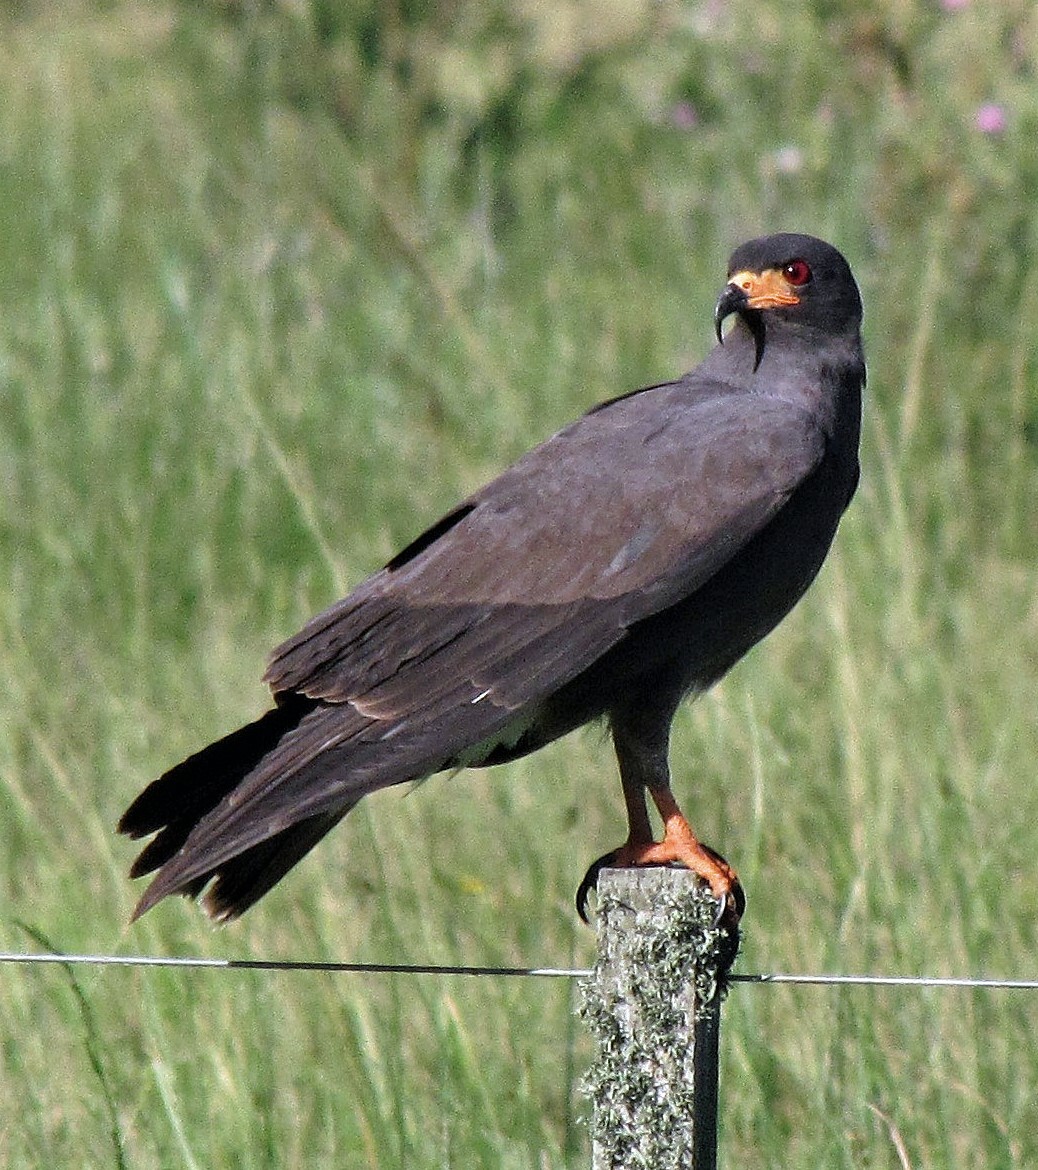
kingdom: Animalia
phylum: Chordata
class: Aves
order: Accipitriformes
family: Accipitridae
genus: Rostrhamus
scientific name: Rostrhamus sociabilis
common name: Snail kite
